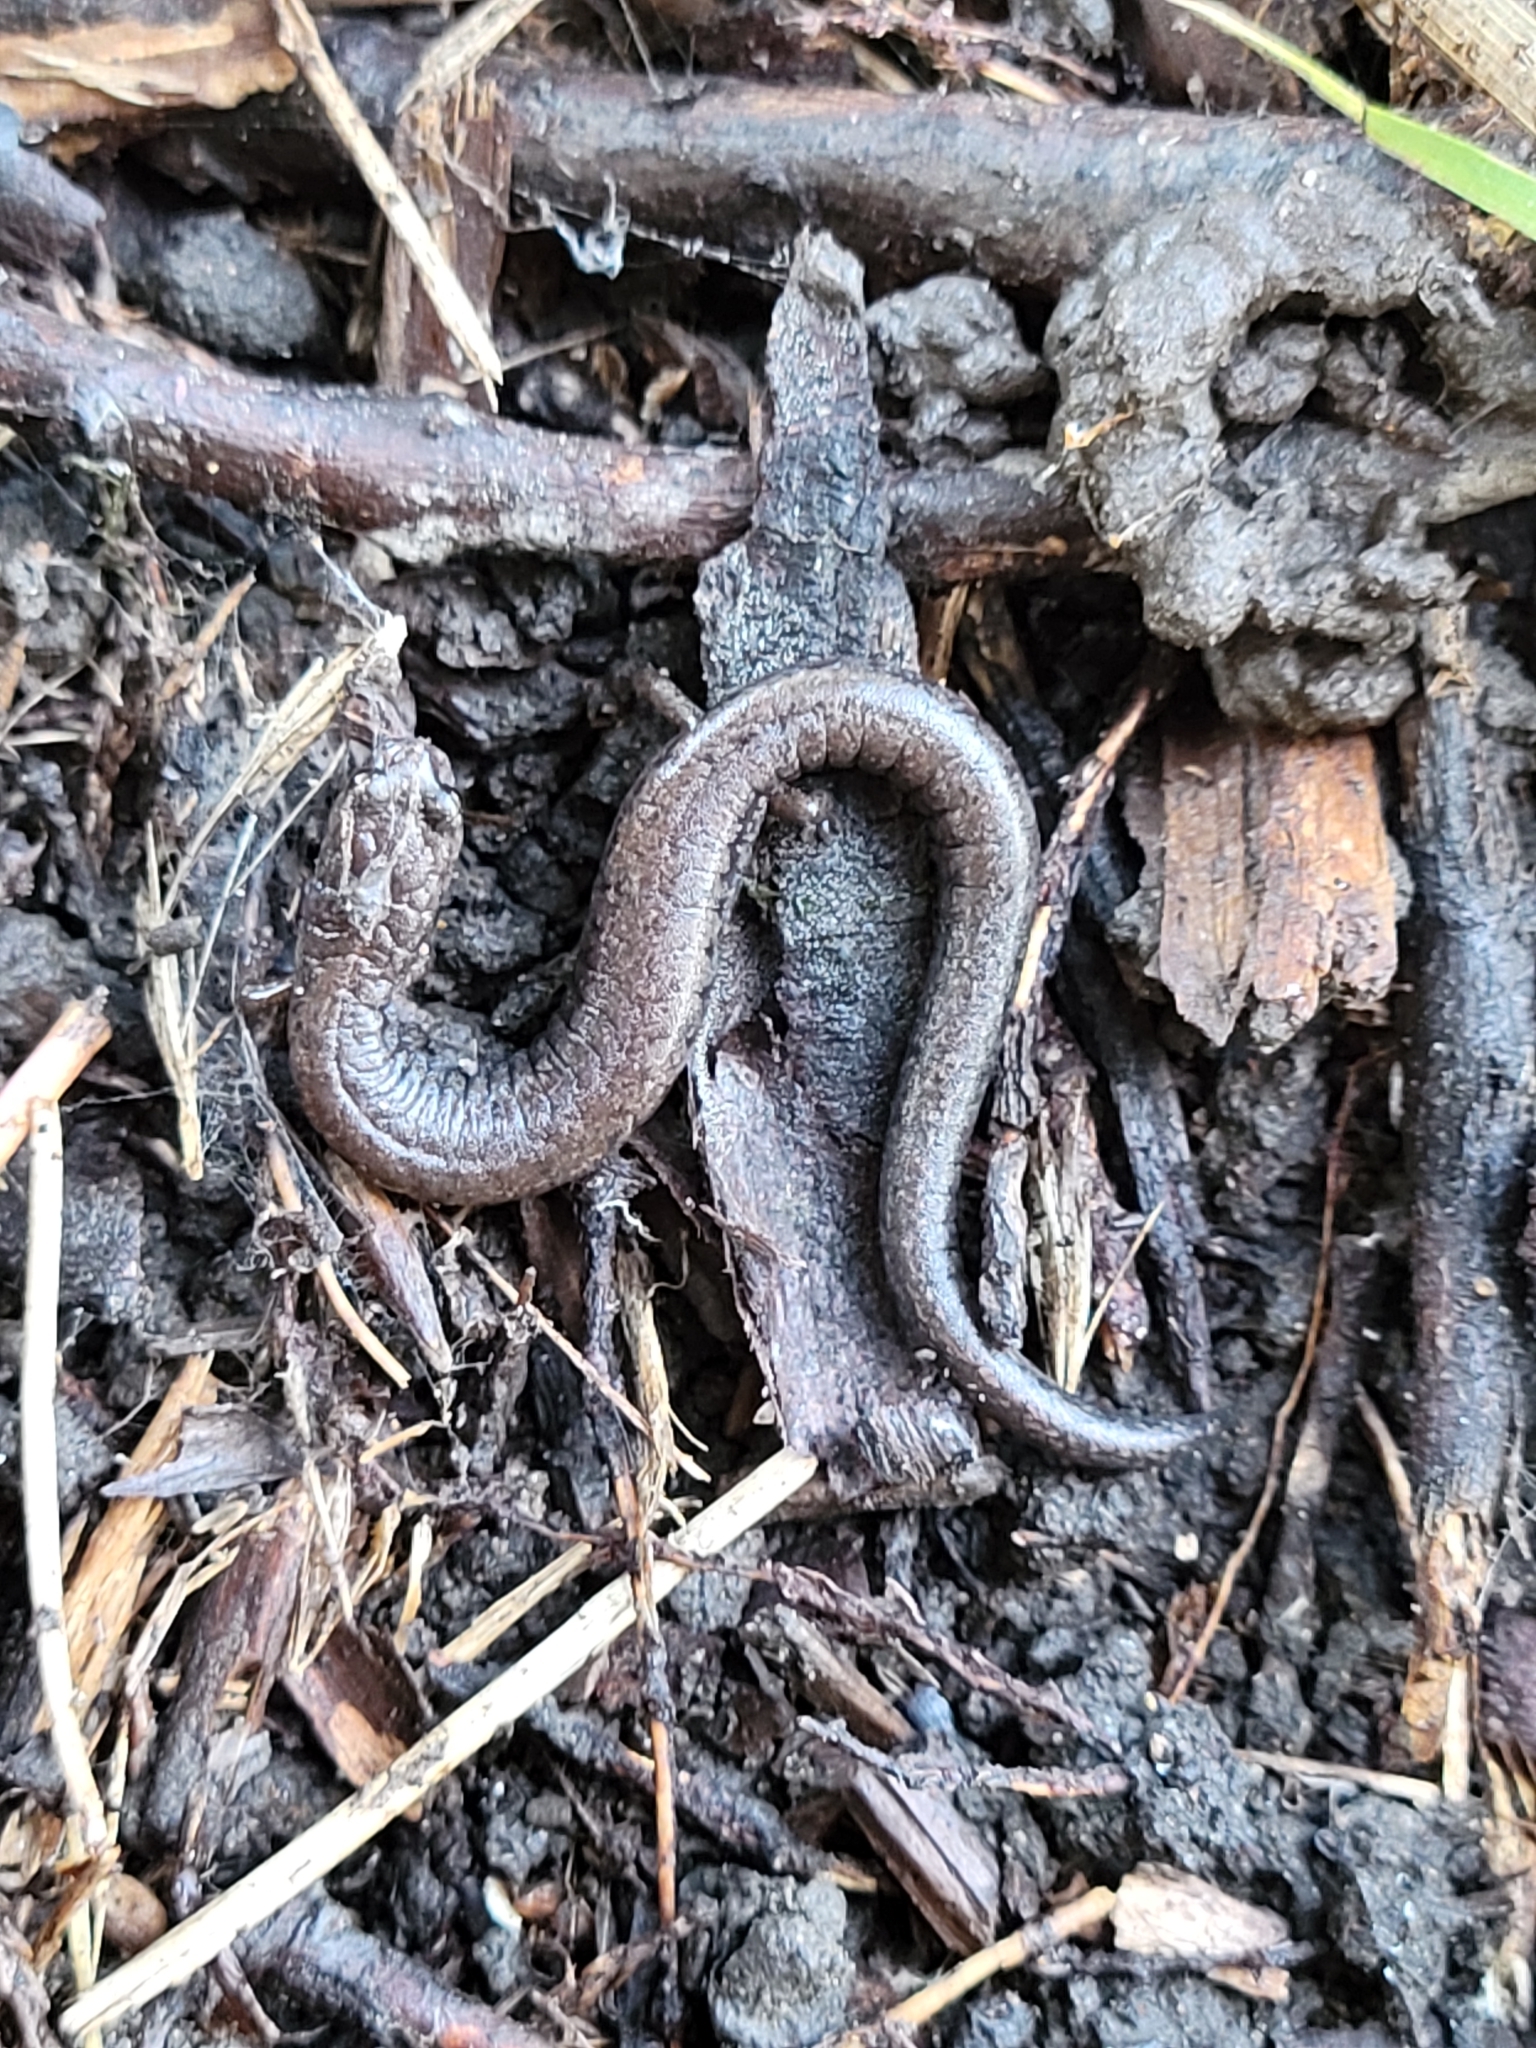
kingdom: Animalia
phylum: Chordata
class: Amphibia
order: Caudata
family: Plethodontidae
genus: Batrachoseps
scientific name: Batrachoseps nigriventris
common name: Black-bellied slender salamander
